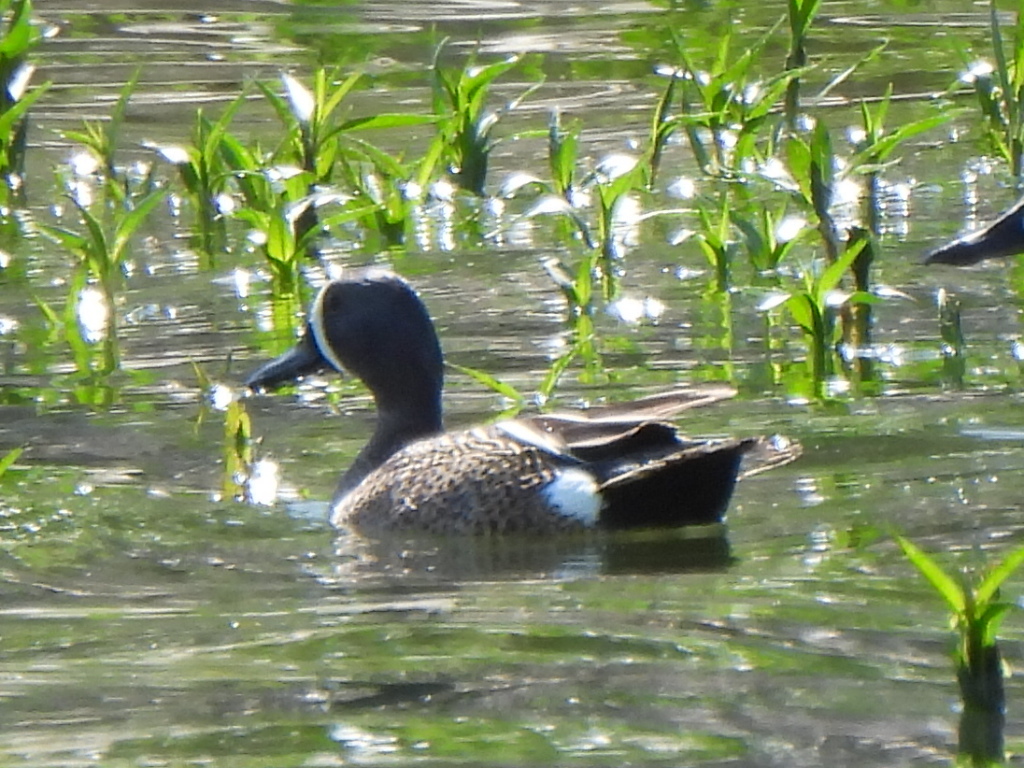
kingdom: Animalia
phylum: Chordata
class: Aves
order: Anseriformes
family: Anatidae
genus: Spatula
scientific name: Spatula discors
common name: Blue-winged teal
